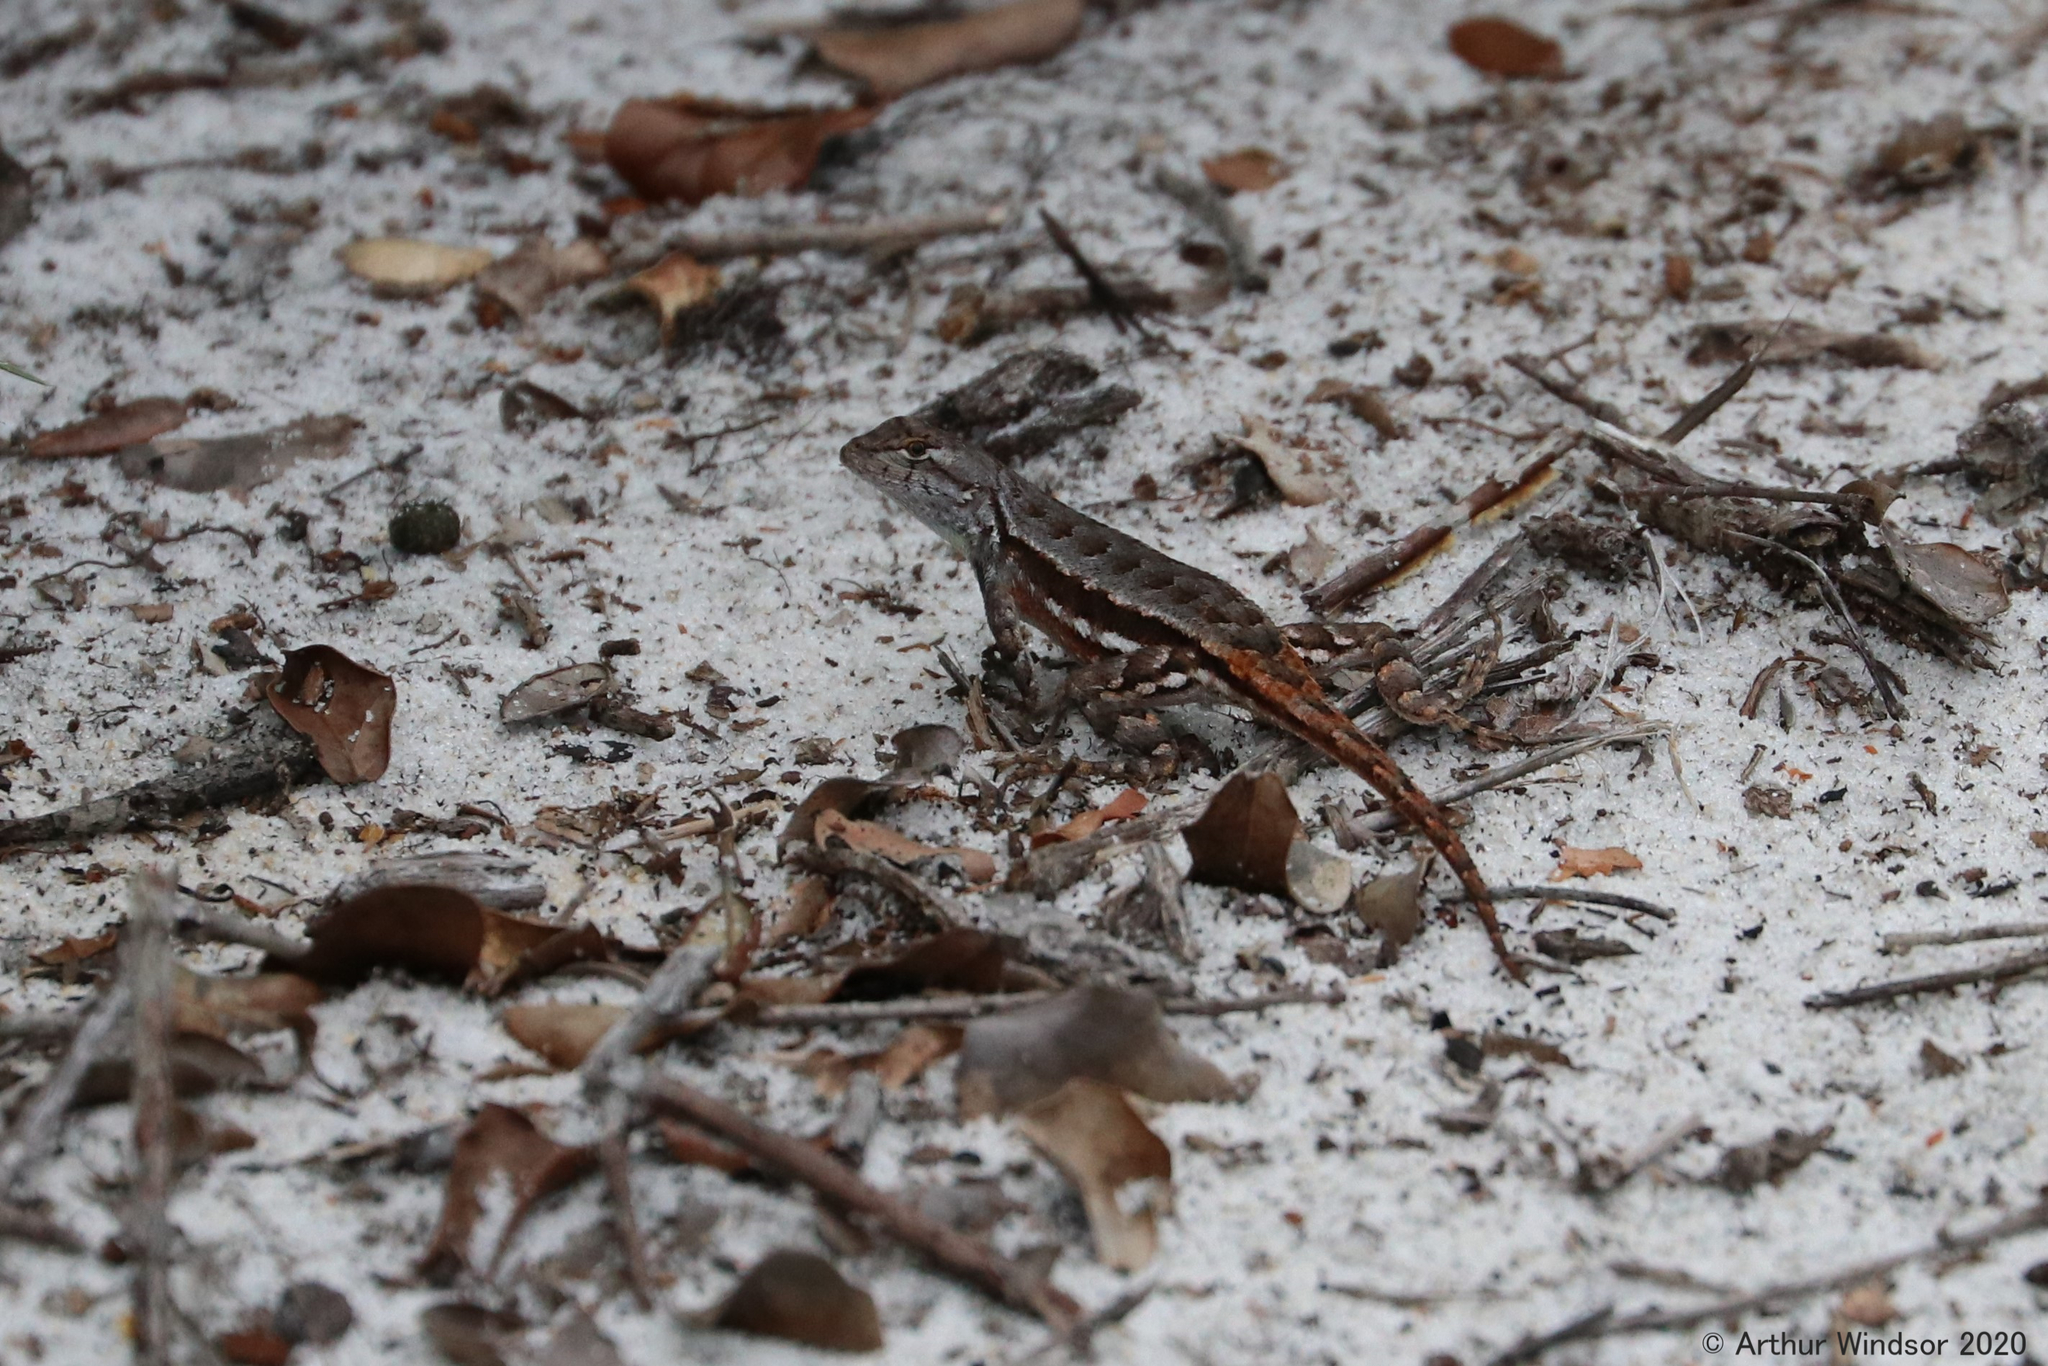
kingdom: Animalia
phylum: Chordata
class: Squamata
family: Phrynosomatidae
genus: Sceloporus
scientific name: Sceloporus woodi
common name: Florida scrub lizard
